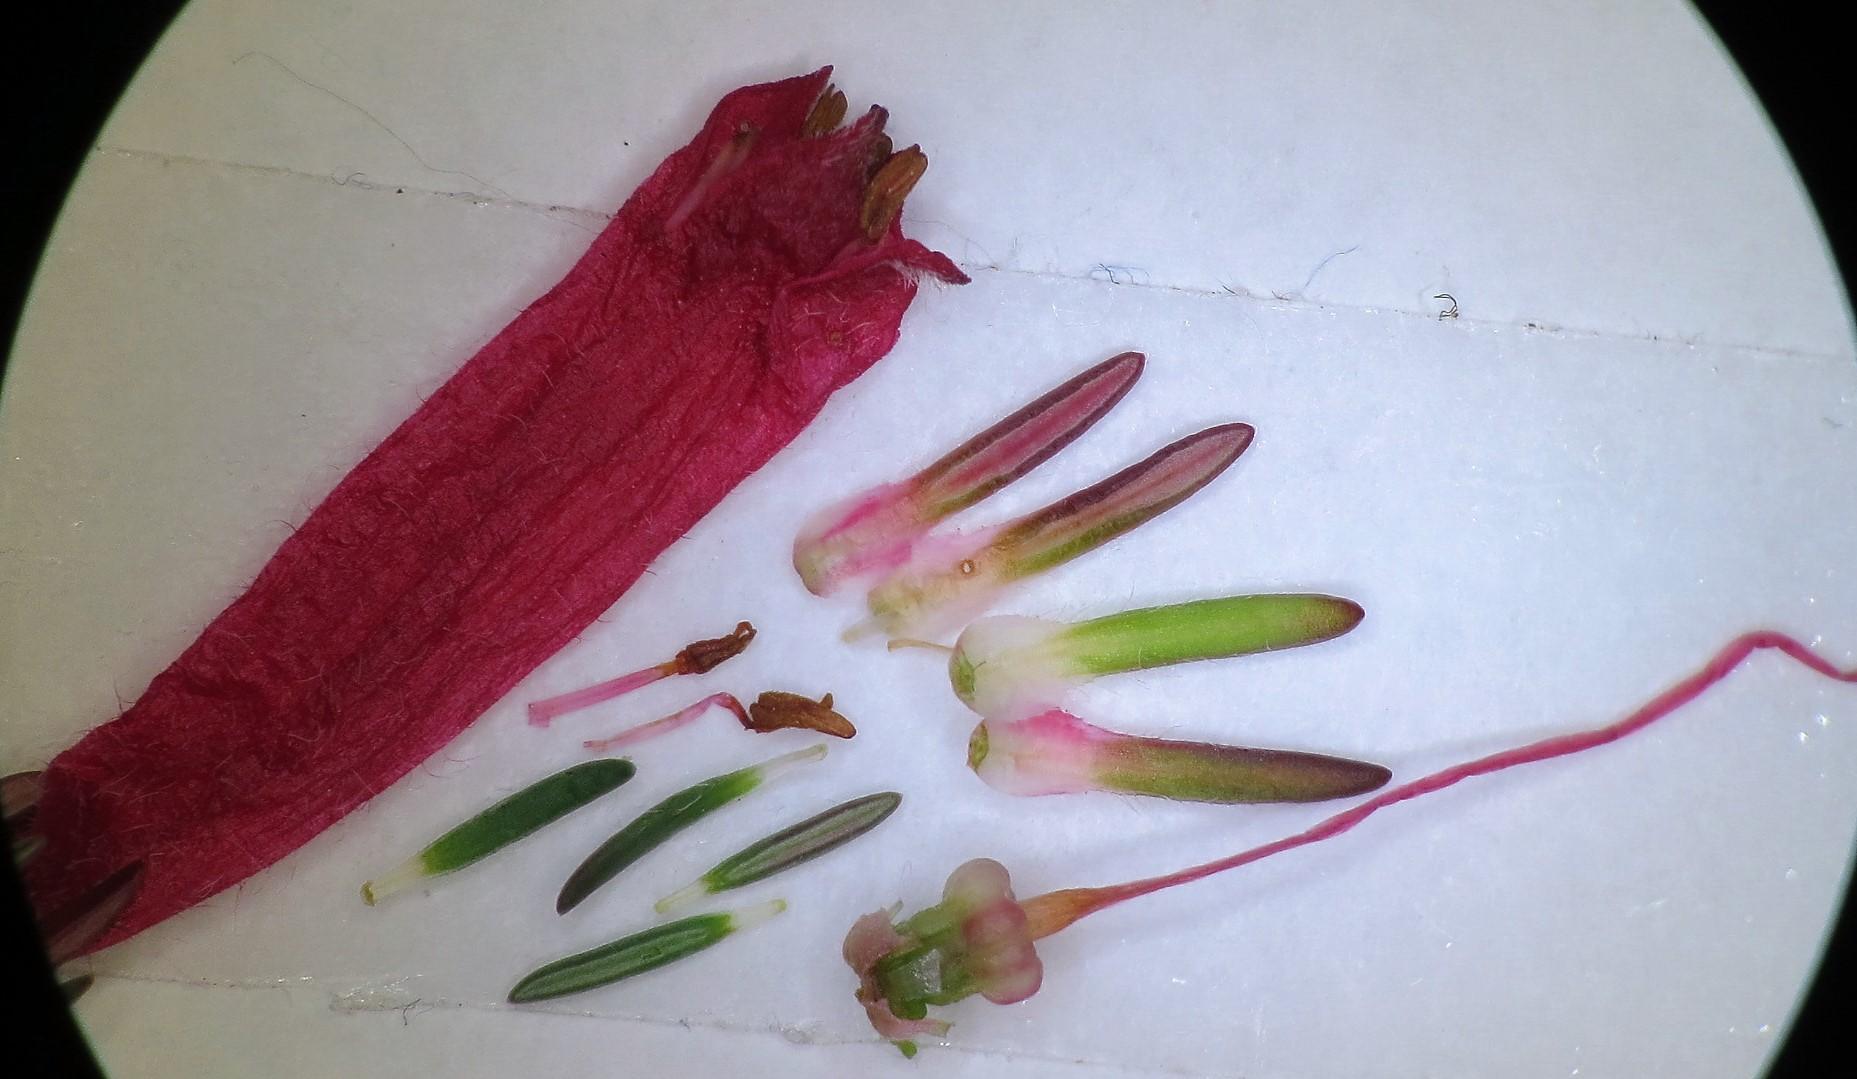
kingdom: Plantae
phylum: Tracheophyta
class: Magnoliopsida
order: Ericales
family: Ericaceae
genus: Erica
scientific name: Erica curviflora
